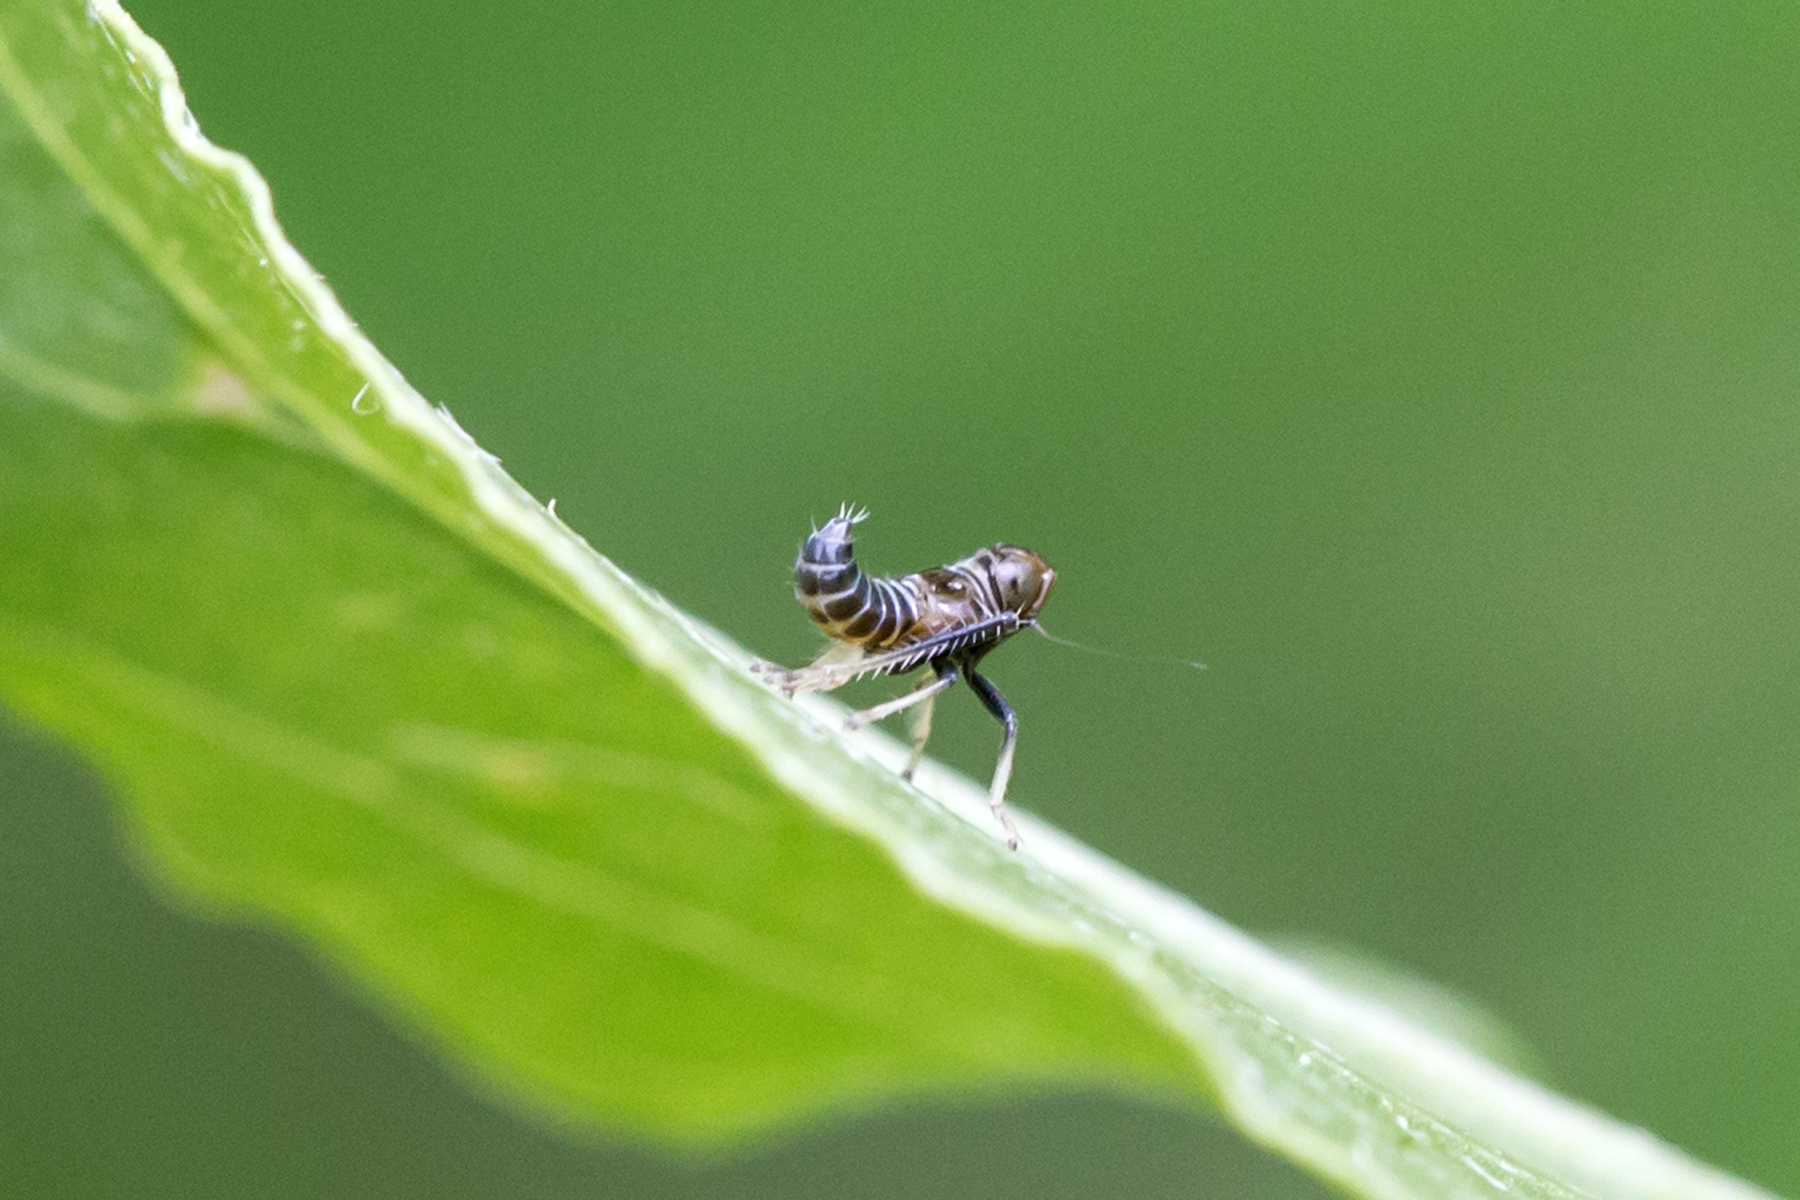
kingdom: Animalia
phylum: Arthropoda
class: Insecta
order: Hemiptera
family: Cicadellidae
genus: Jikradia
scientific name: Jikradia olitoria
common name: Coppery leafhopper
